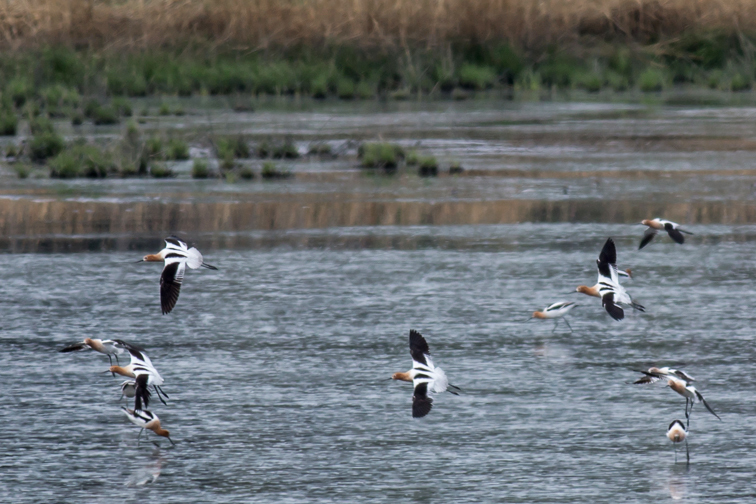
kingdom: Animalia
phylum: Chordata
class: Aves
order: Charadriiformes
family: Recurvirostridae
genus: Recurvirostra
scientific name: Recurvirostra americana
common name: American avocet
